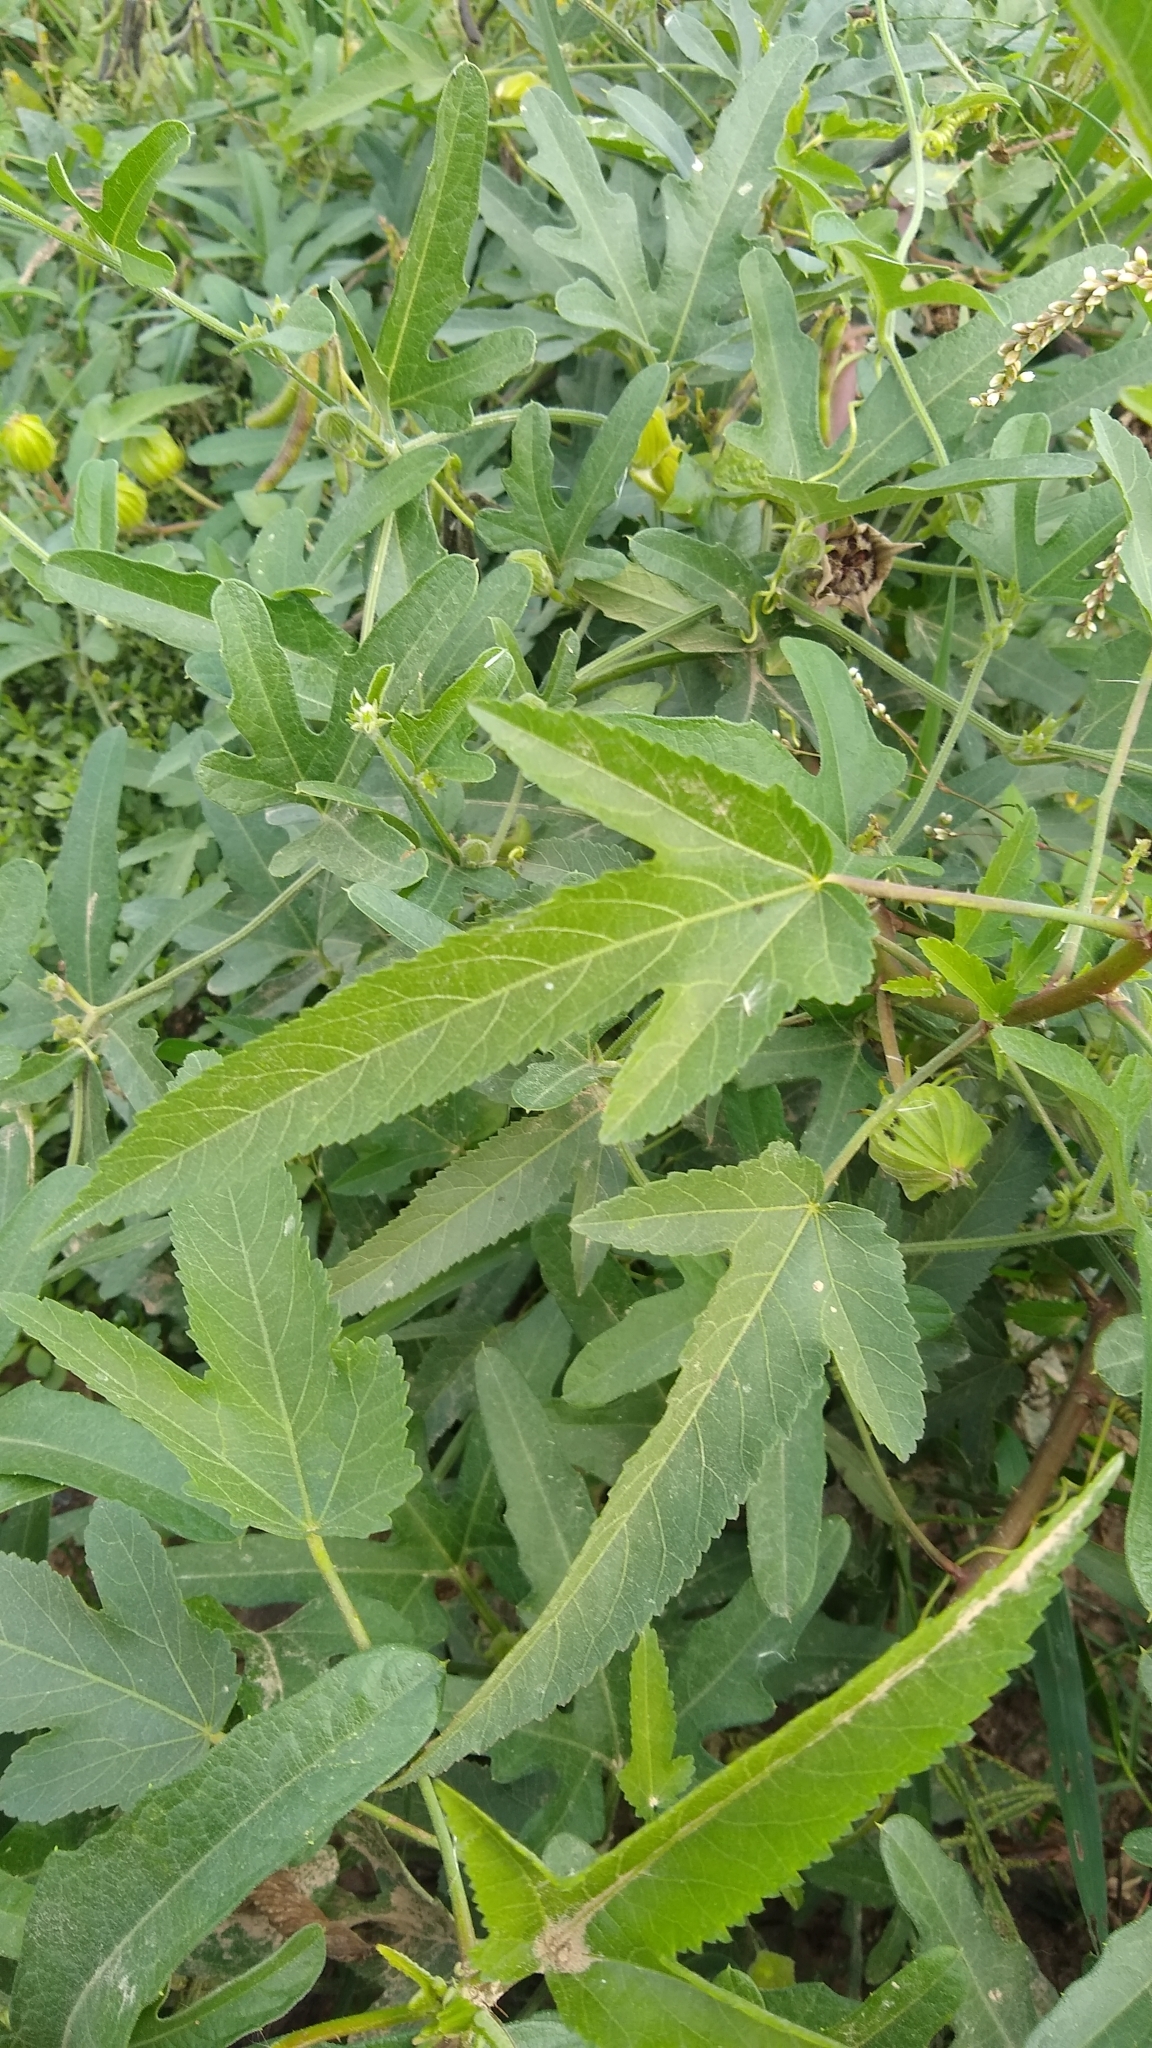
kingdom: Plantae
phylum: Tracheophyta
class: Magnoliopsida
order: Malvales
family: Malvaceae
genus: Hibiscus
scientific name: Hibiscus striatus
